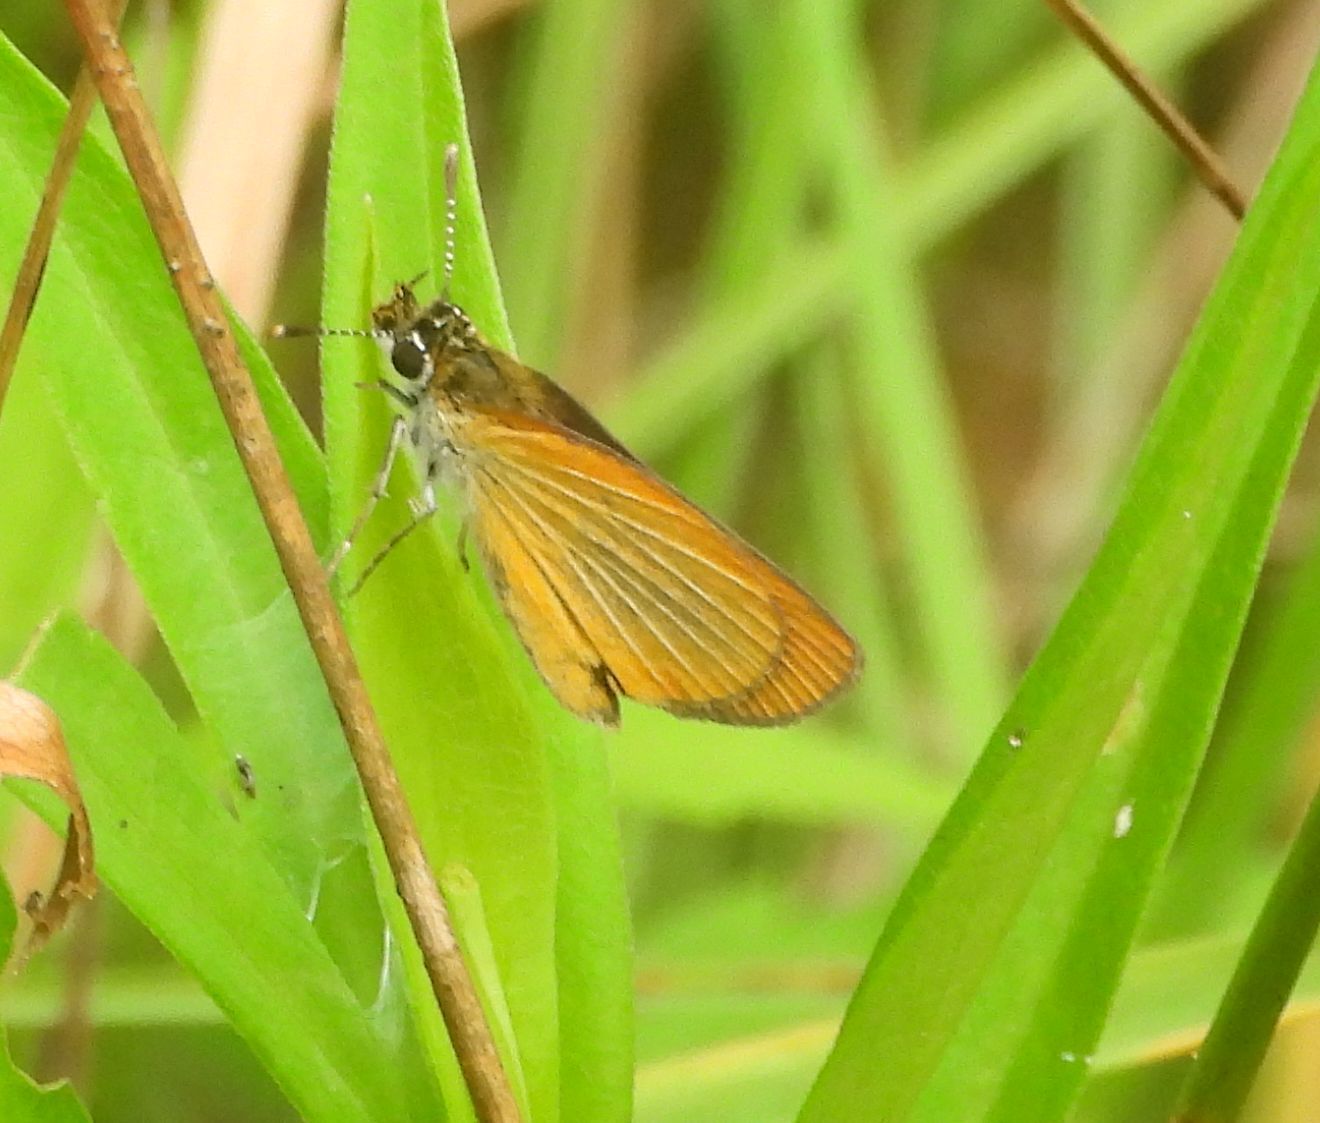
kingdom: Animalia
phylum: Arthropoda
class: Insecta
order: Lepidoptera
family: Hesperiidae
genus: Ancyloxypha
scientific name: Ancyloxypha numitor
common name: Least skipper
